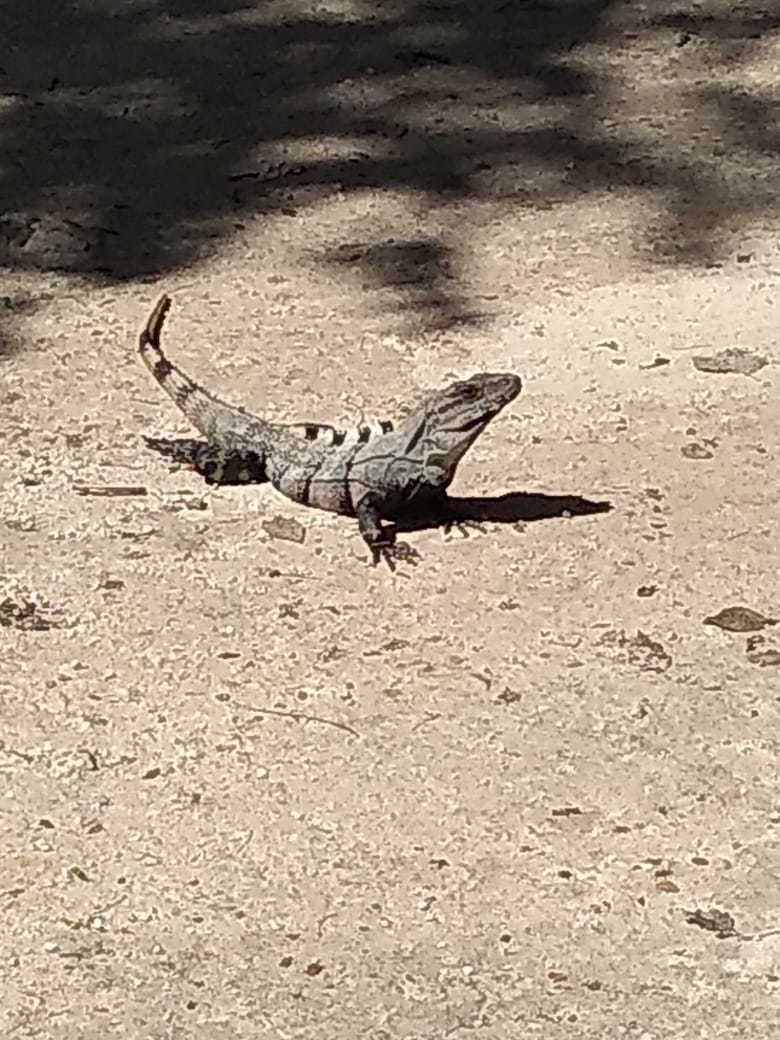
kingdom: Animalia
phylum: Chordata
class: Squamata
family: Iguanidae
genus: Ctenosaura
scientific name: Ctenosaura similis
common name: Black spiny-tailed iguana
